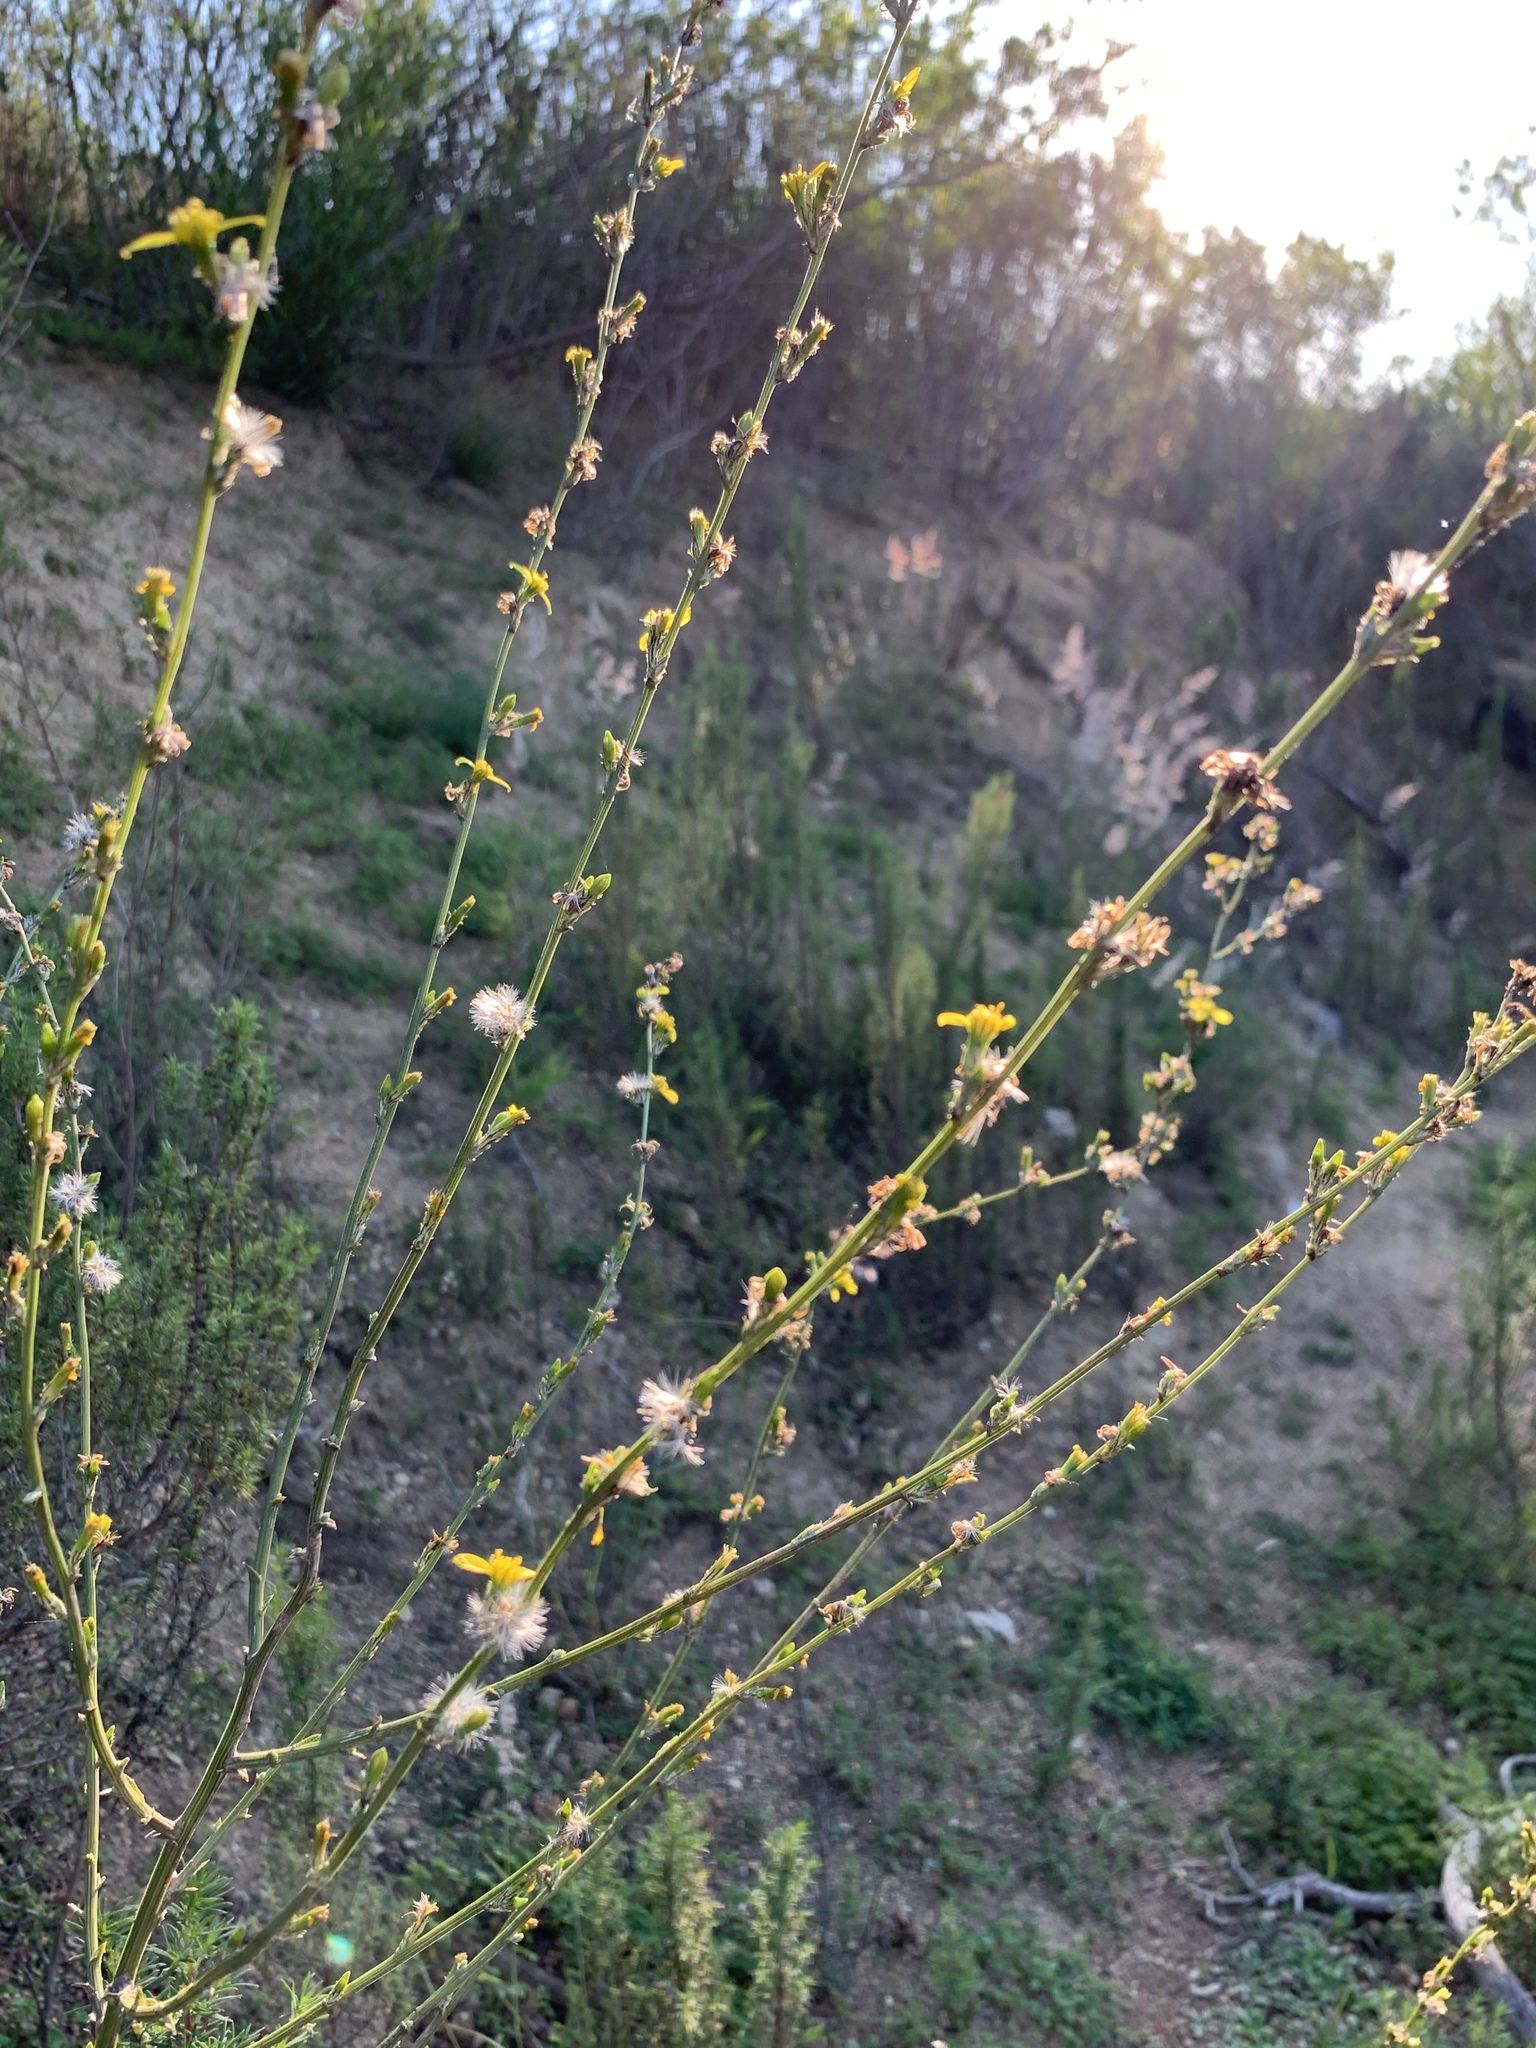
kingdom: Plantae
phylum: Tracheophyta
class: Magnoliopsida
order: Asterales
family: Asteraceae
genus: Senecio
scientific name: Senecio pubigerus
